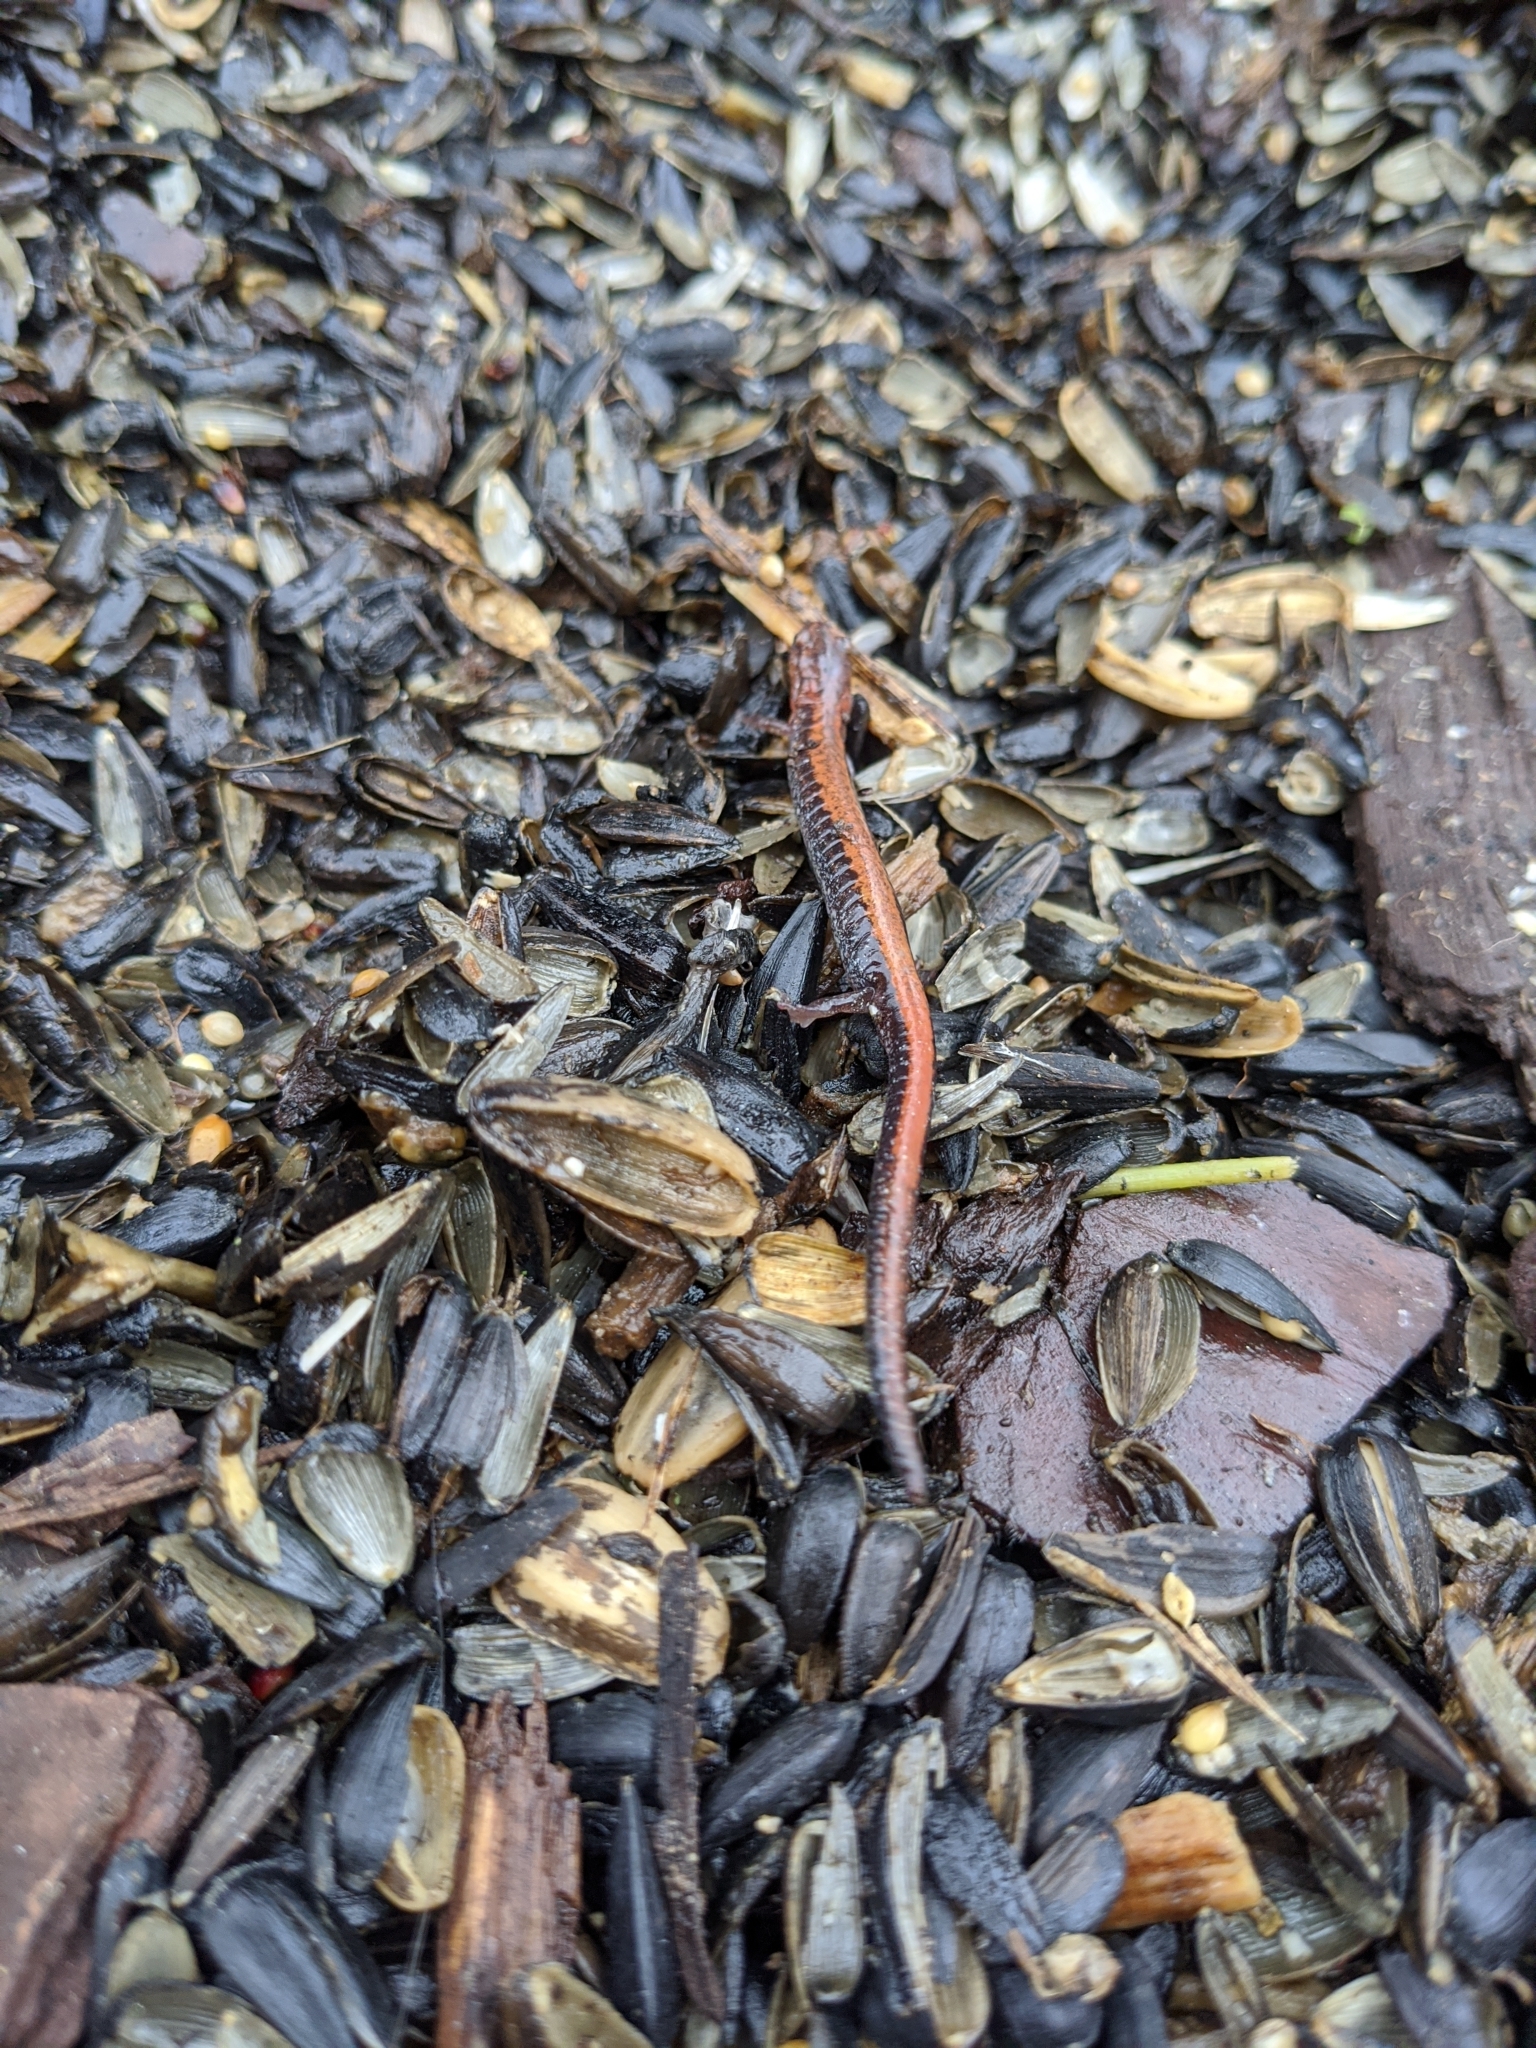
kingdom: Animalia
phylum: Chordata
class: Amphibia
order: Caudata
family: Plethodontidae
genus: Plethodon
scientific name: Plethodon cinereus
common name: Redback salamander
